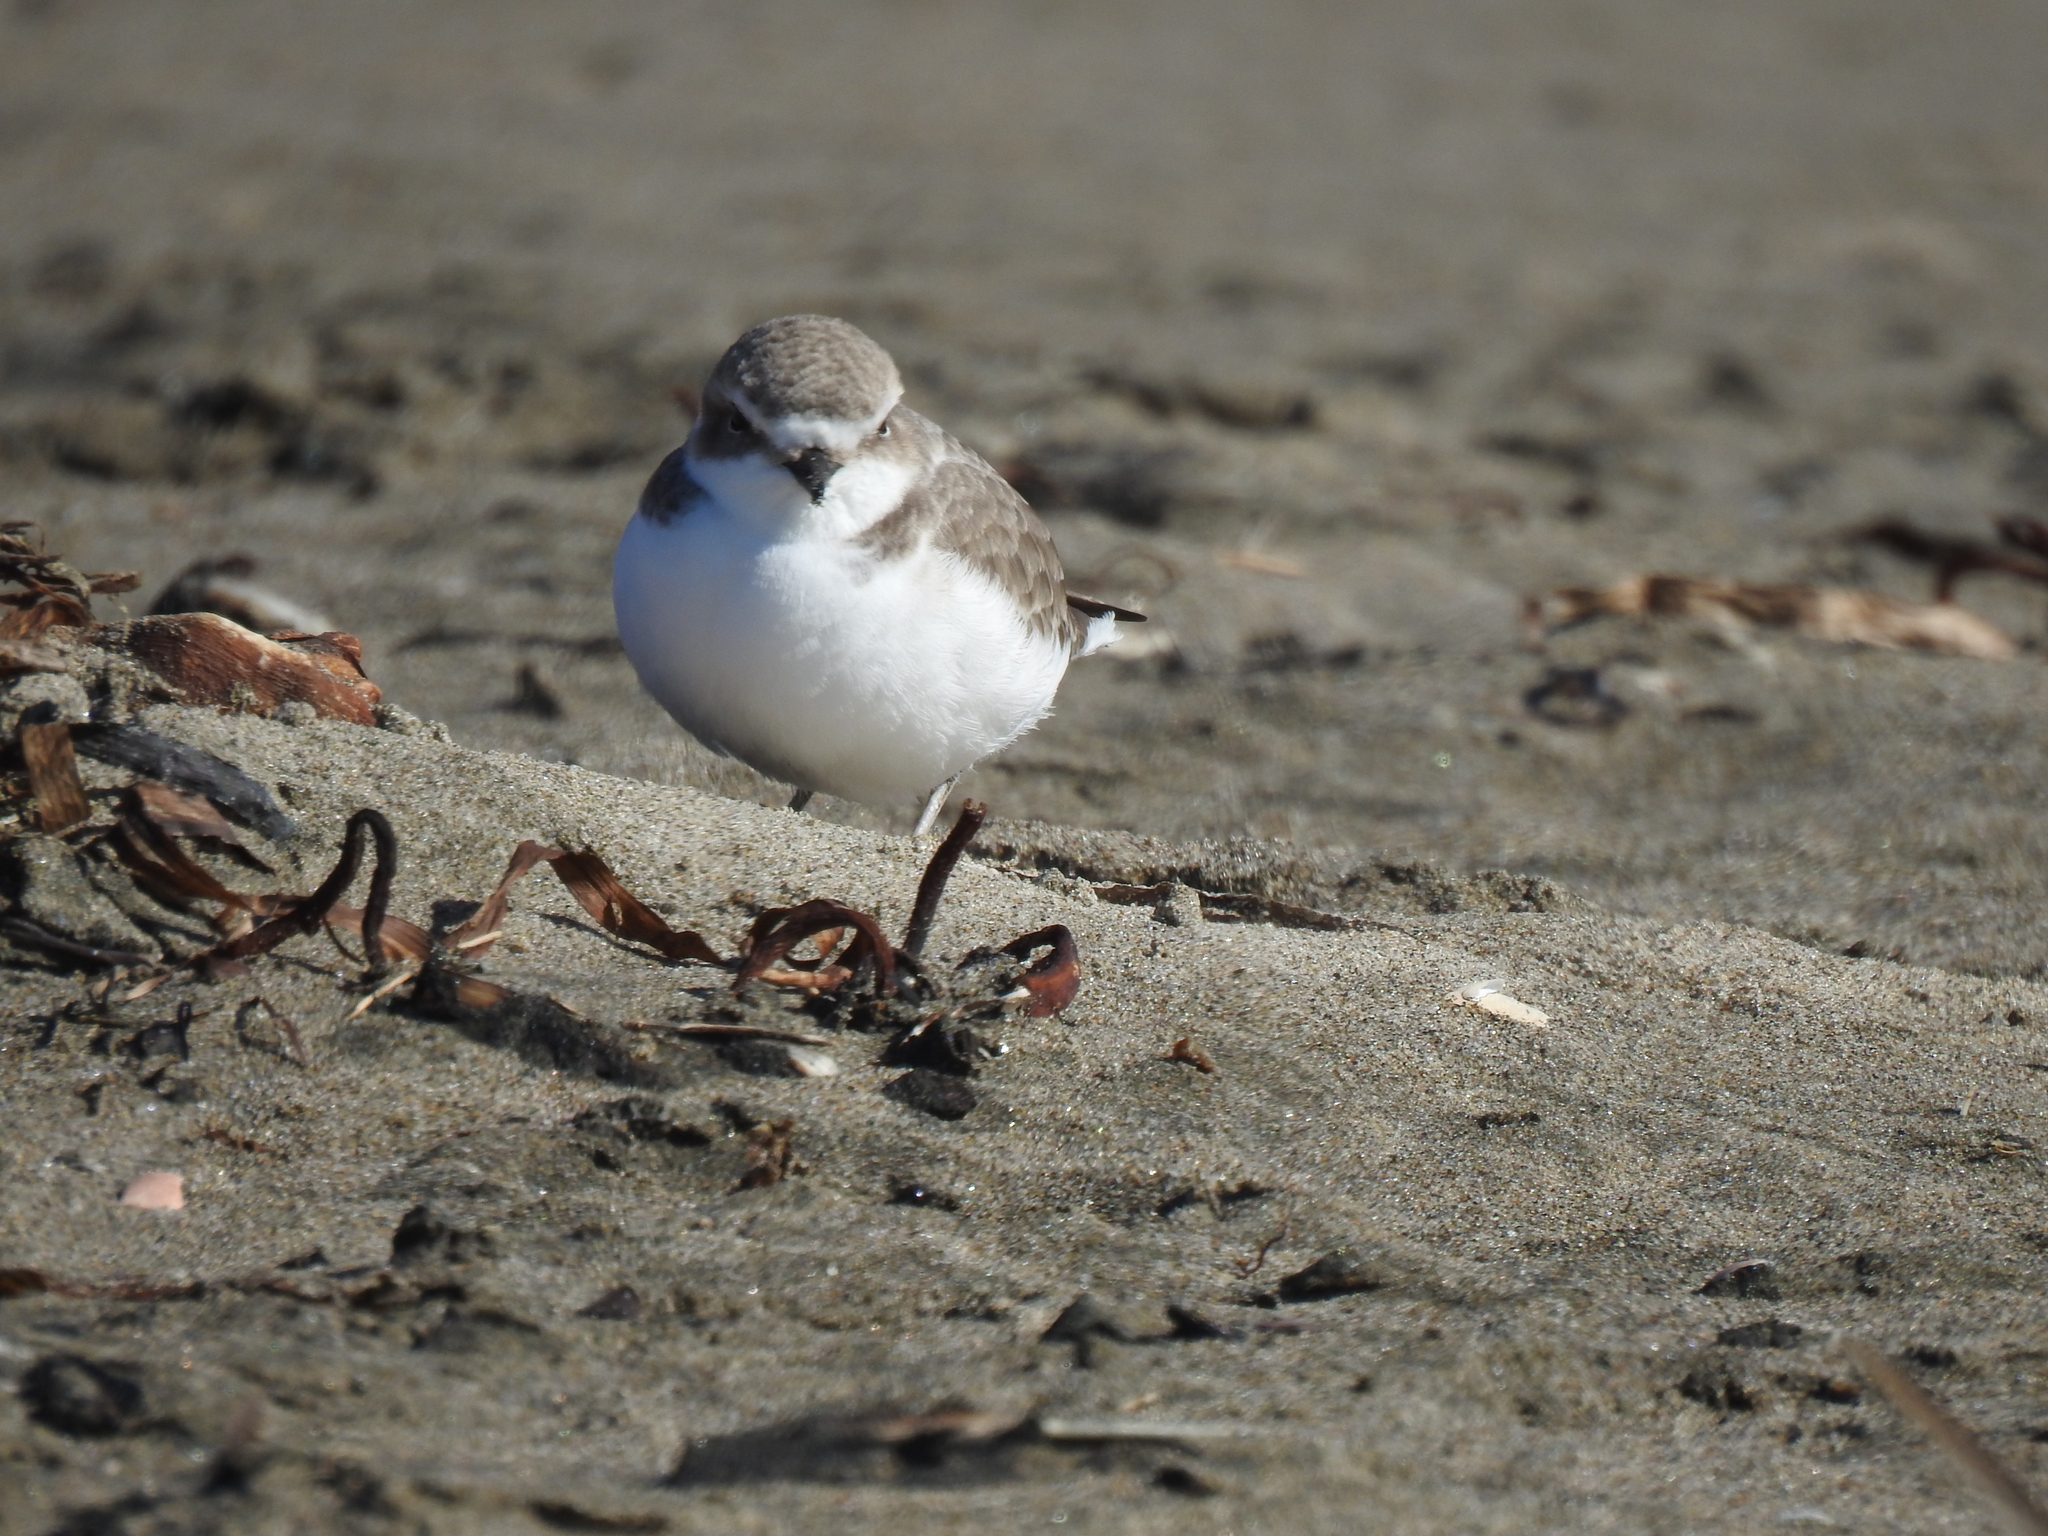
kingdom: Animalia
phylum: Chordata
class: Aves
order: Charadriiformes
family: Charadriidae
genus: Anarhynchus
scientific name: Anarhynchus
